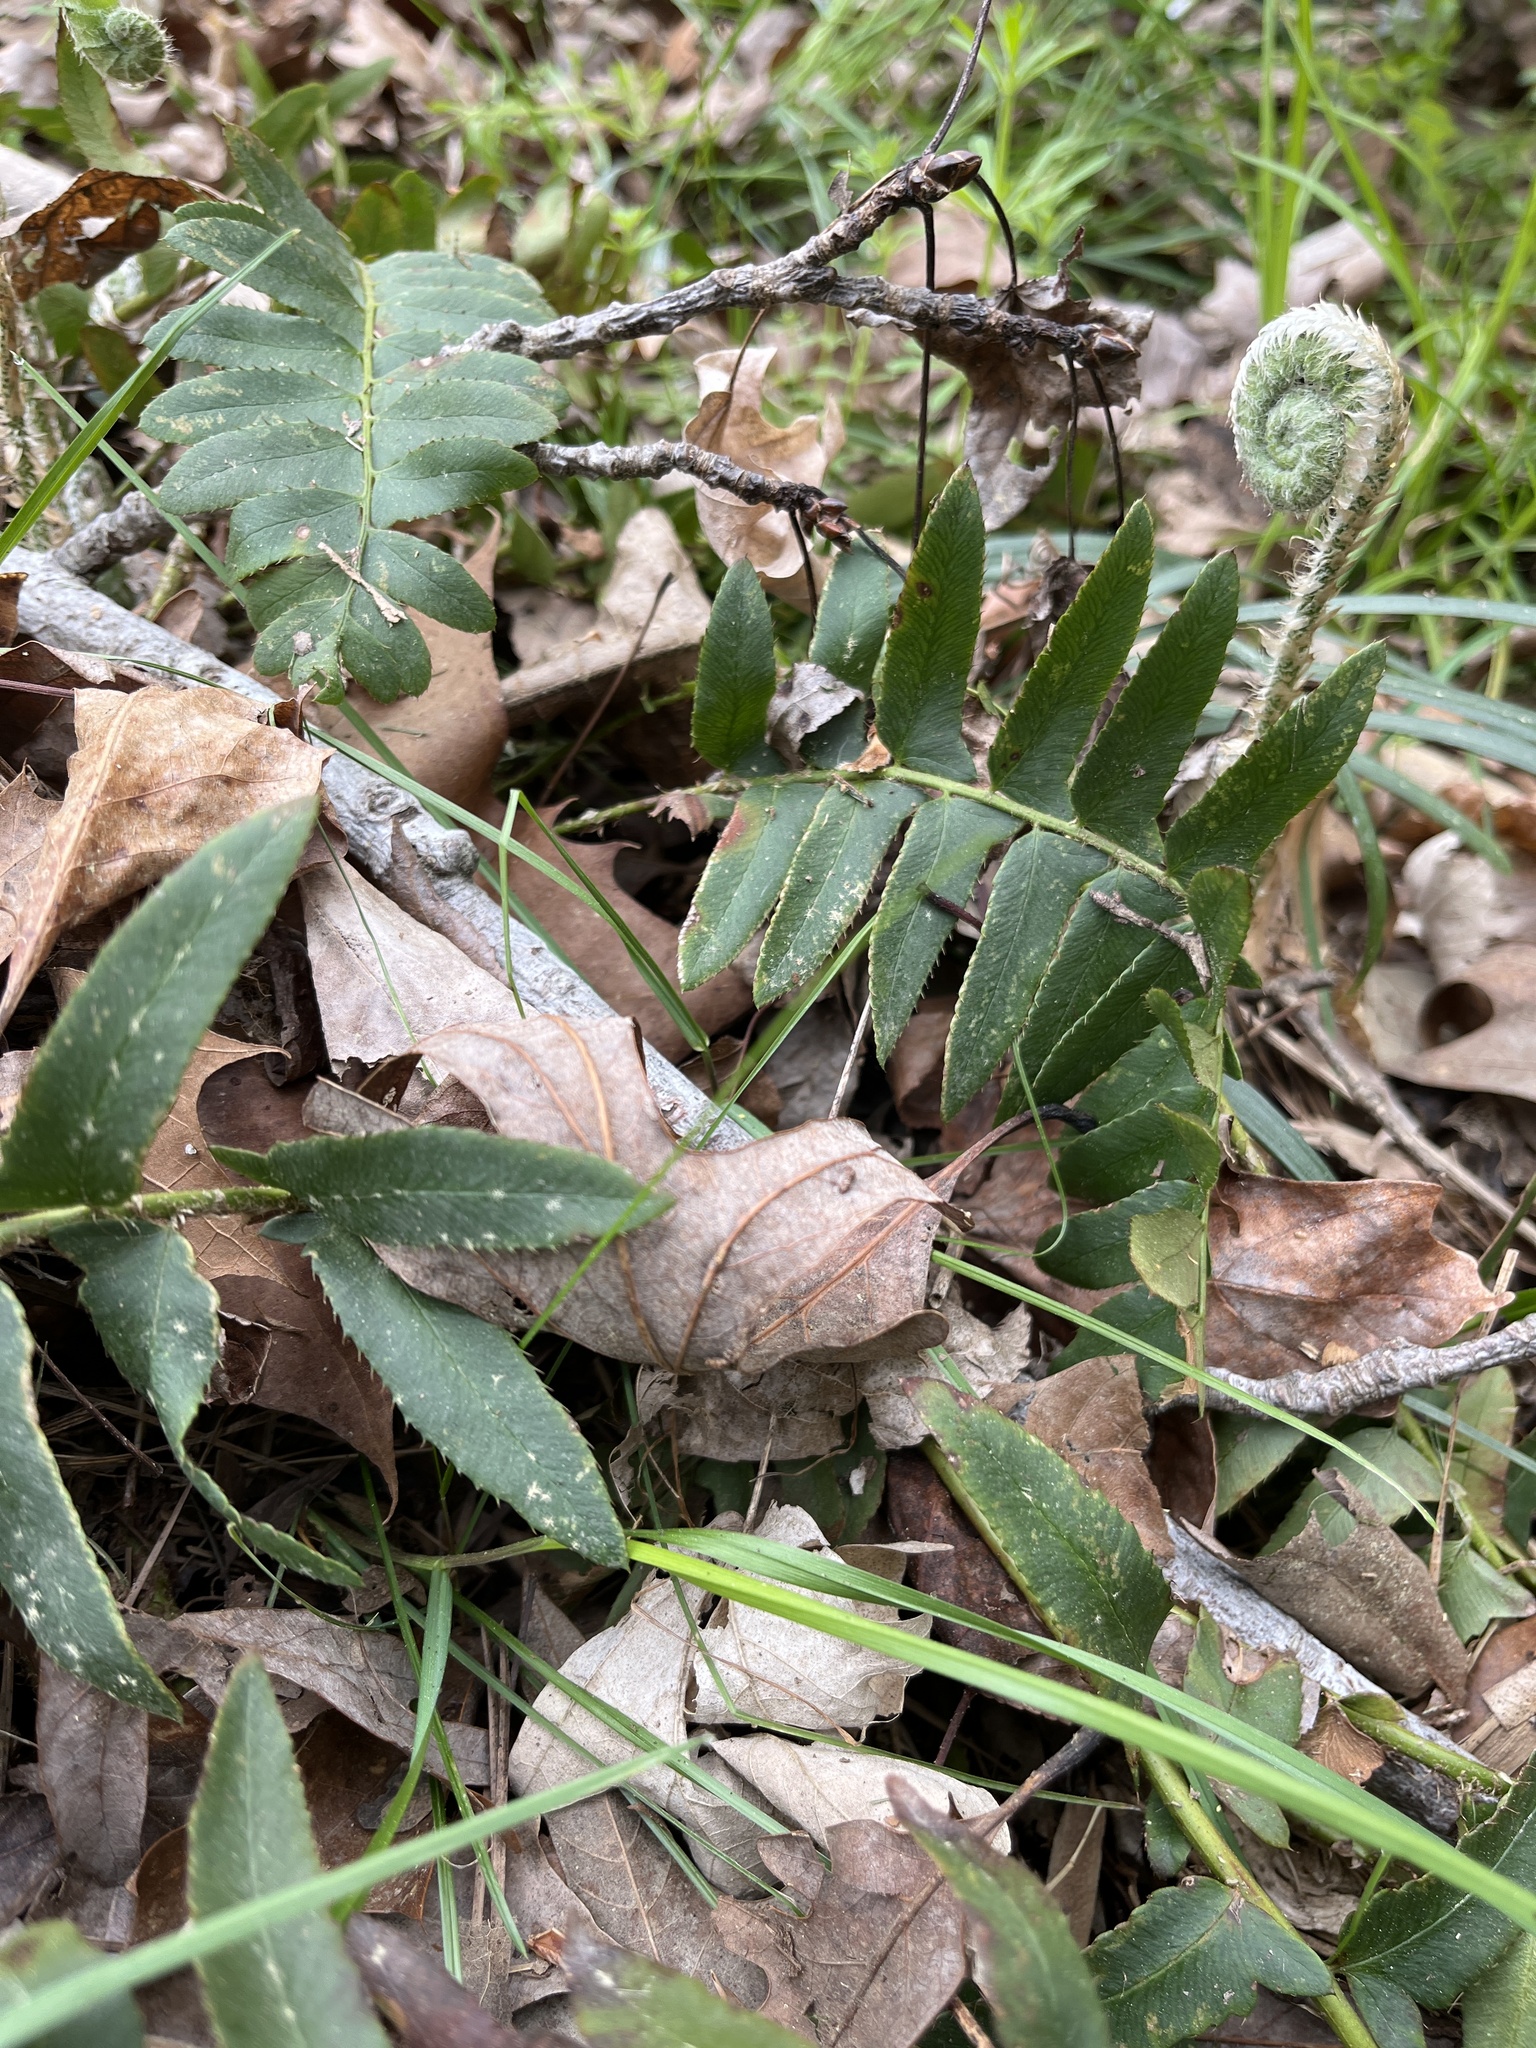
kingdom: Plantae
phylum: Tracheophyta
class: Polypodiopsida
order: Polypodiales
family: Dryopteridaceae
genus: Polystichum
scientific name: Polystichum acrostichoides
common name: Christmas fern
